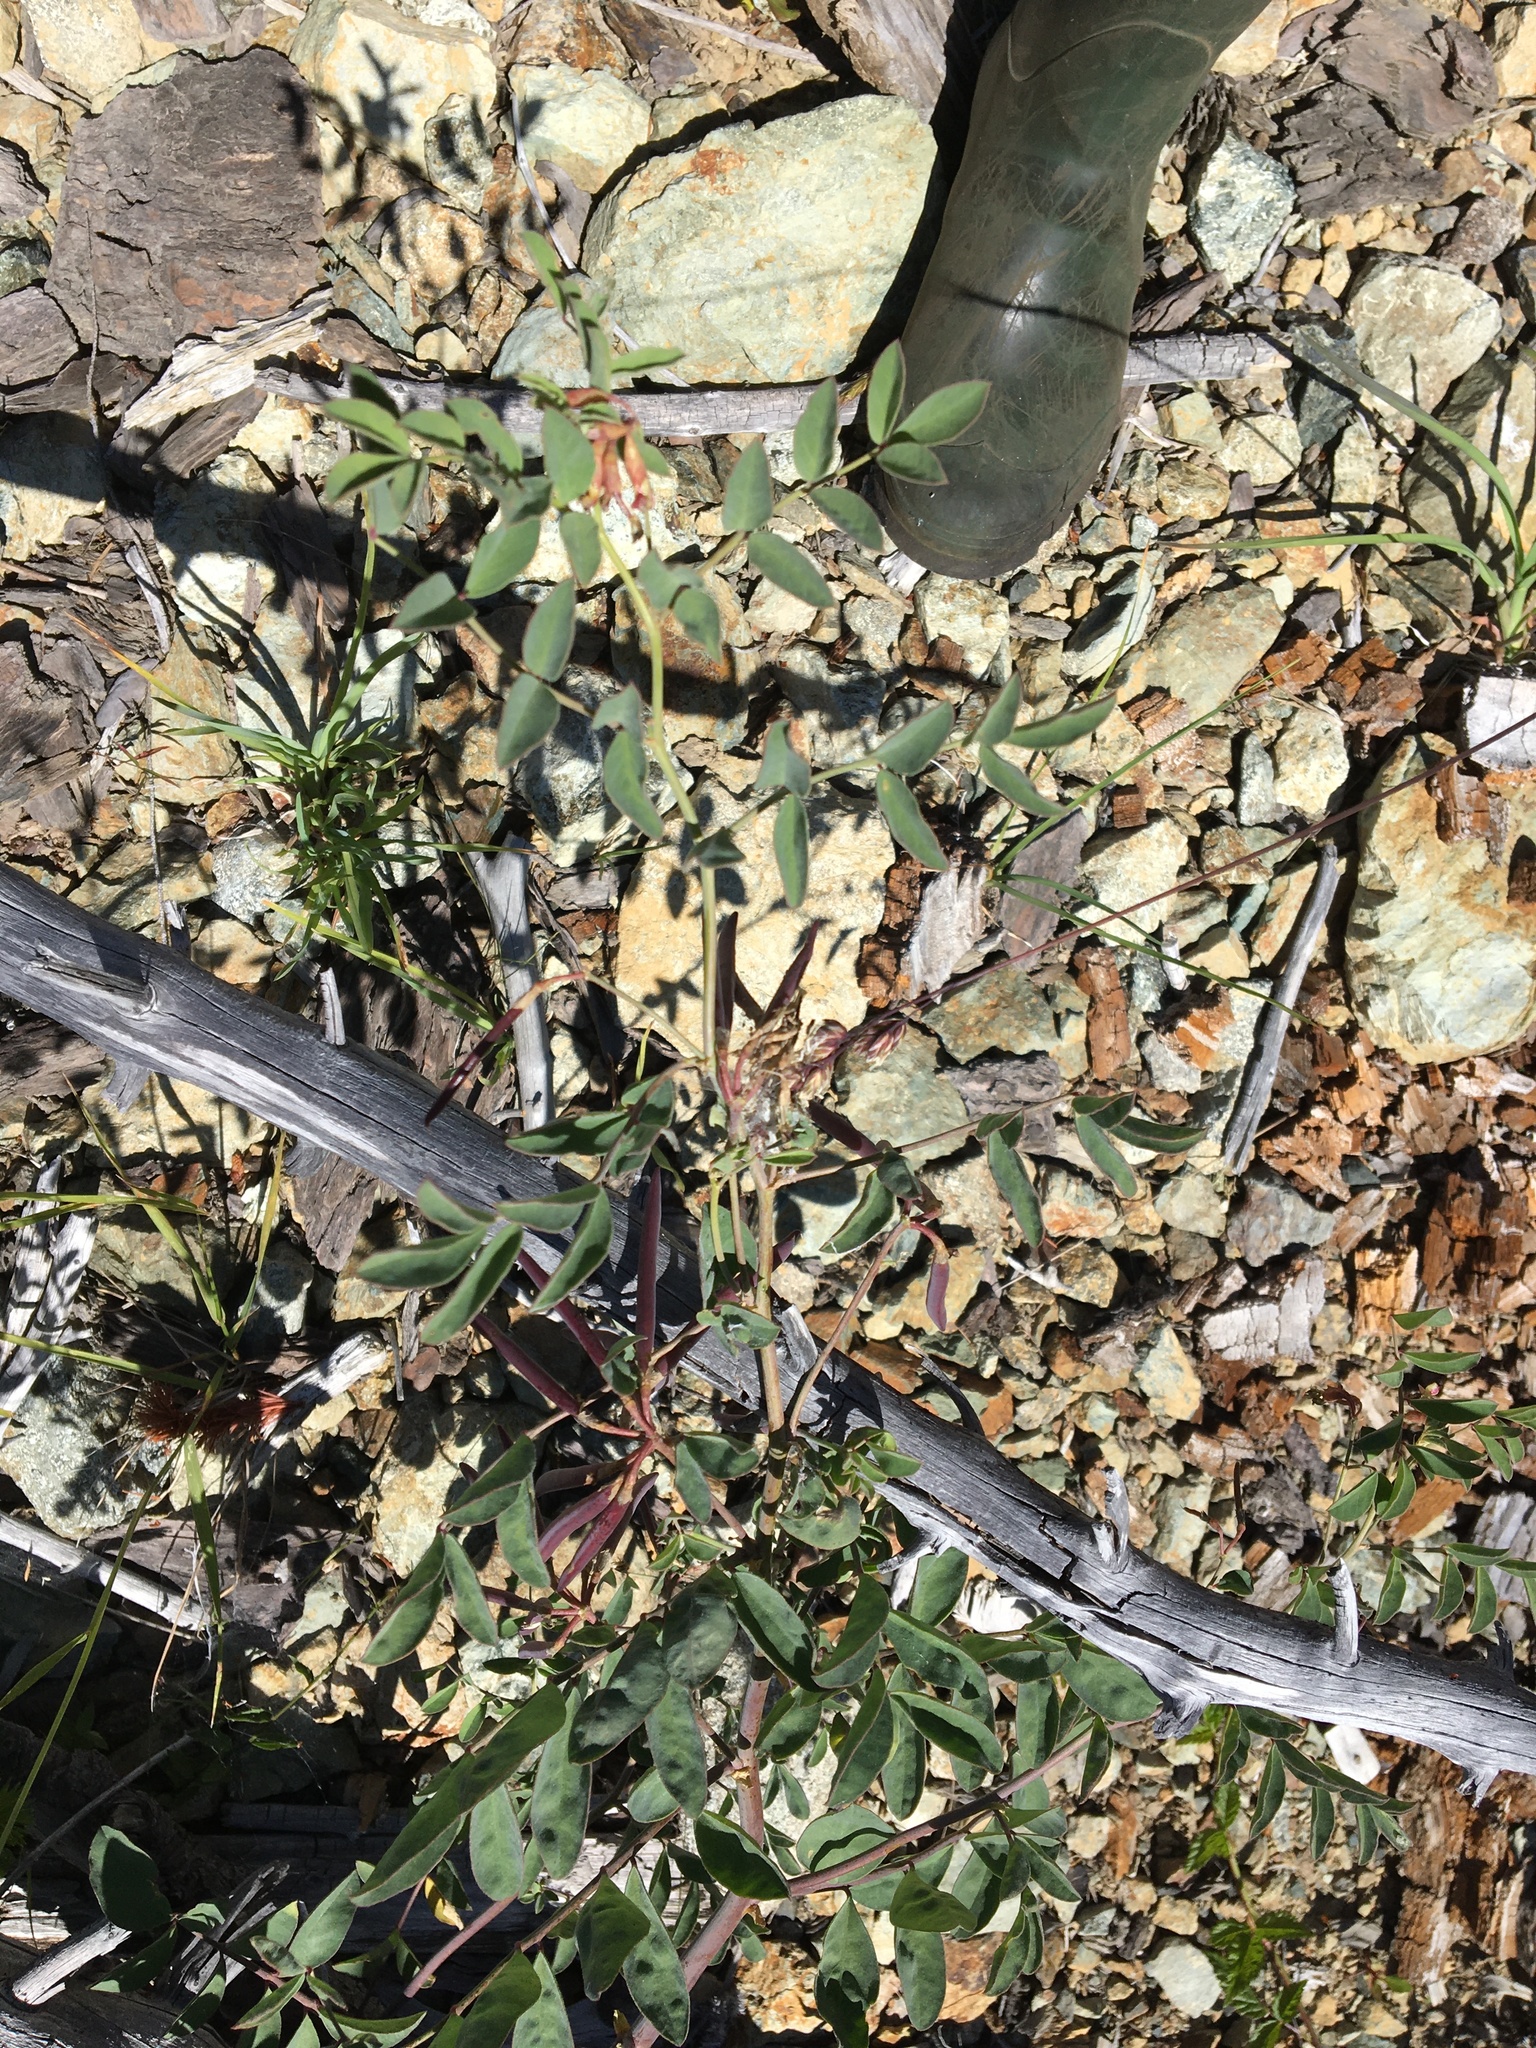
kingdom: Plantae
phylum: Tracheophyta
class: Magnoliopsida
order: Fabales
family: Fabaceae
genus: Hosackia
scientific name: Hosackia crassifolia
